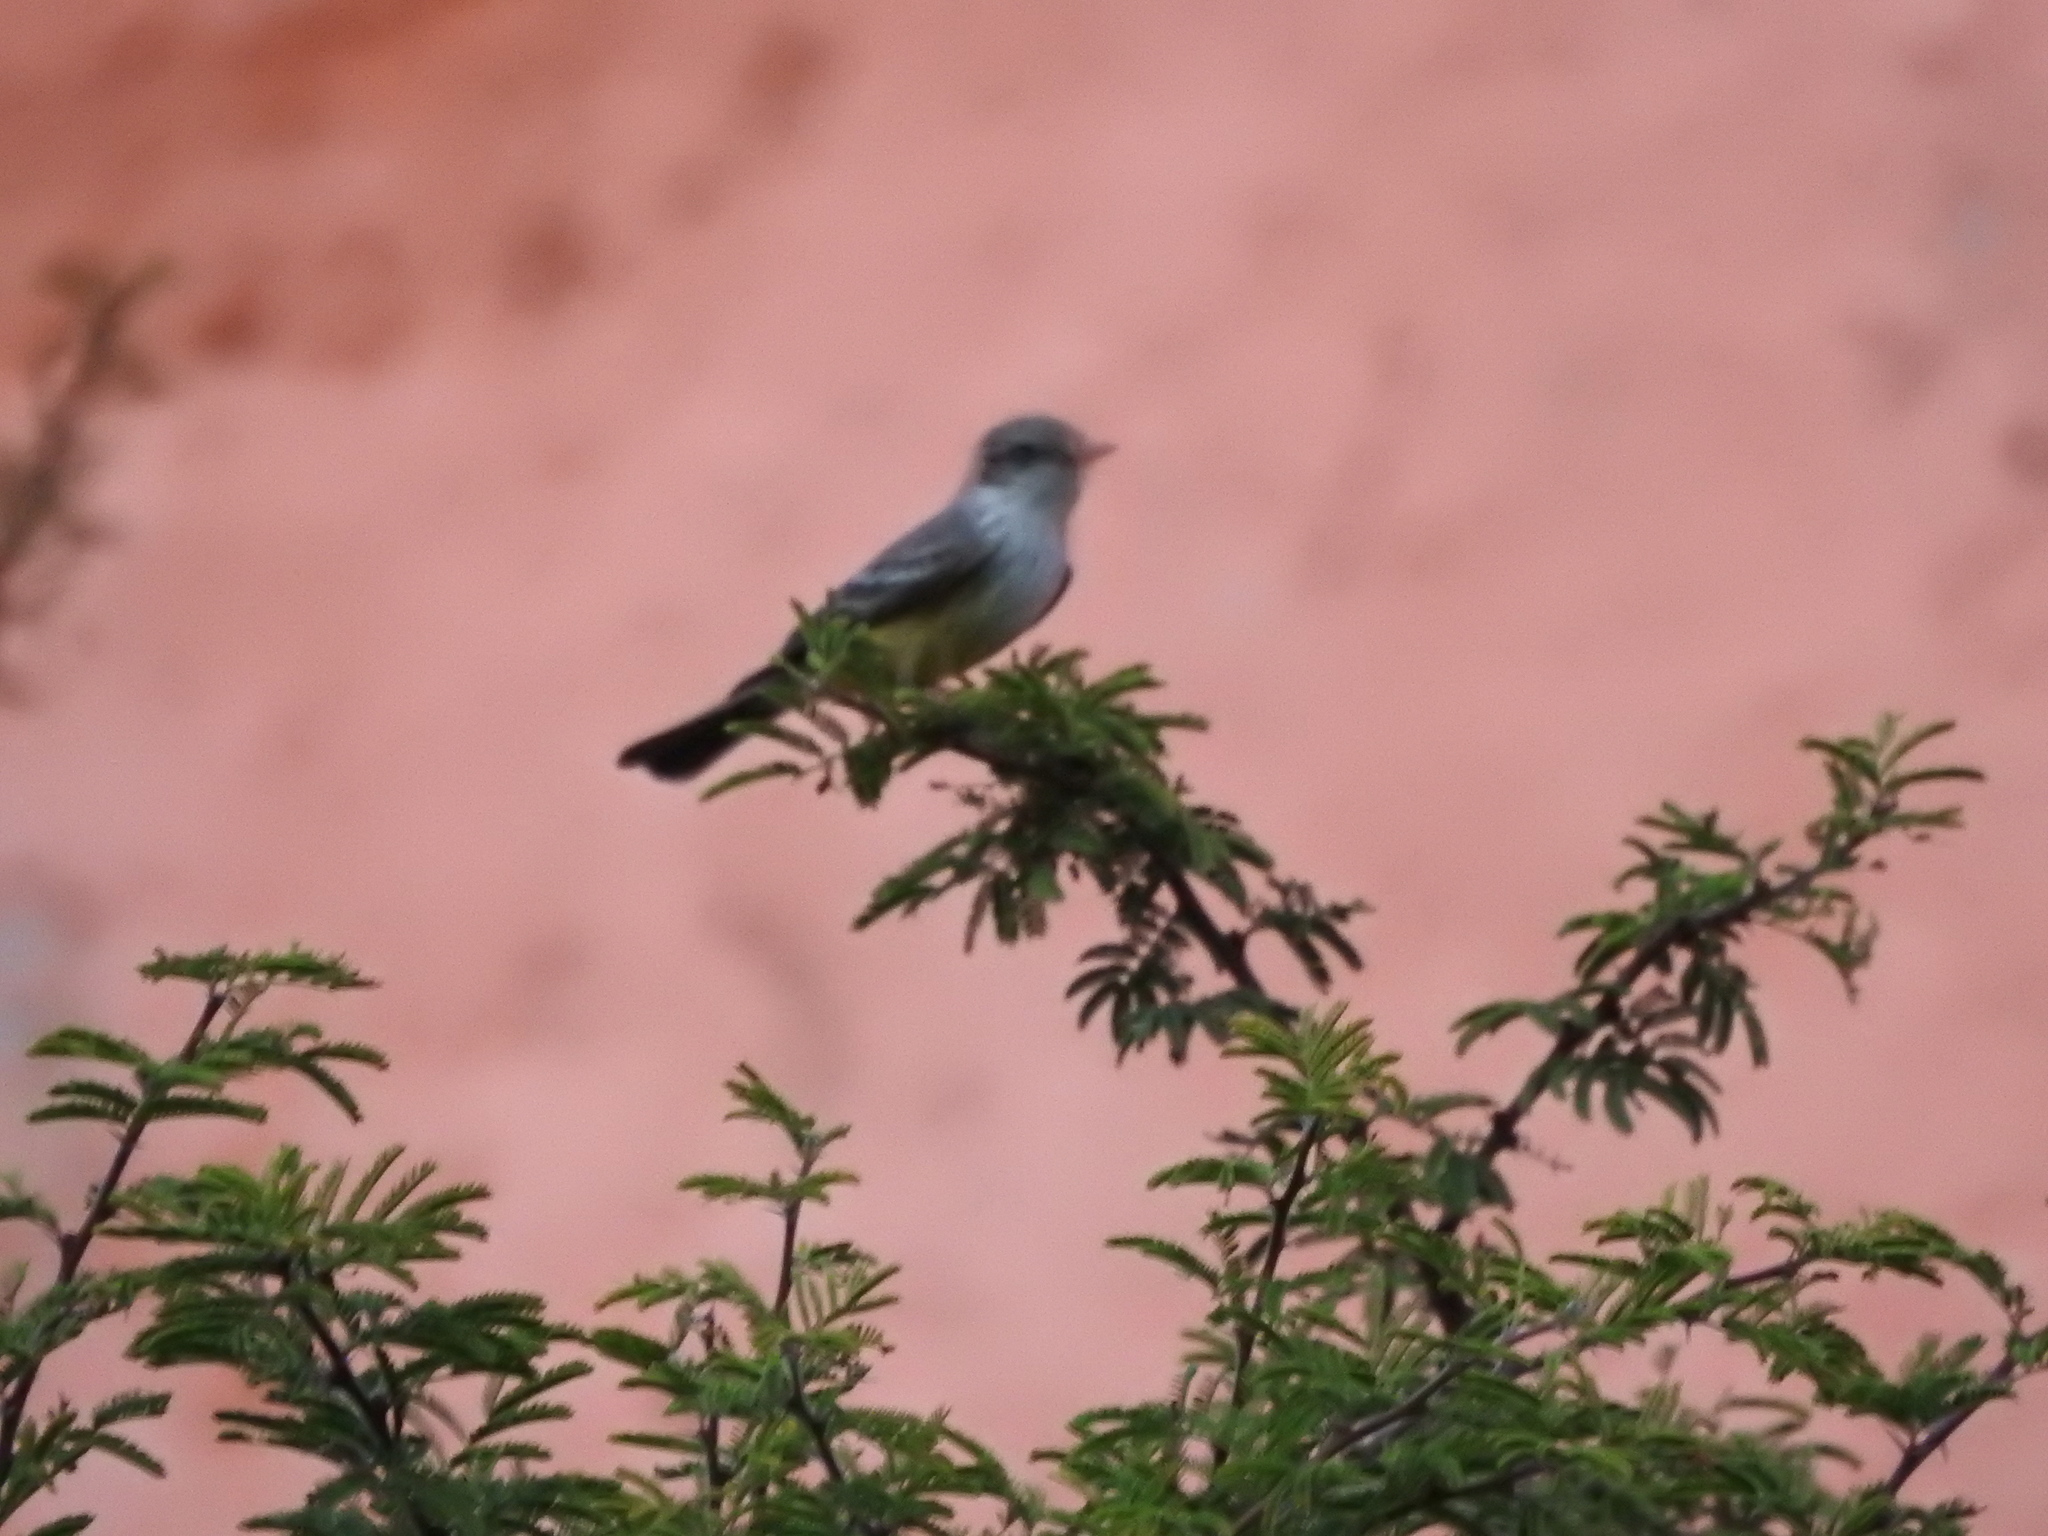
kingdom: Animalia
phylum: Chordata
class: Aves
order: Passeriformes
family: Tyrannidae
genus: Pyrocephalus
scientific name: Pyrocephalus rubinus
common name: Vermilion flycatcher
